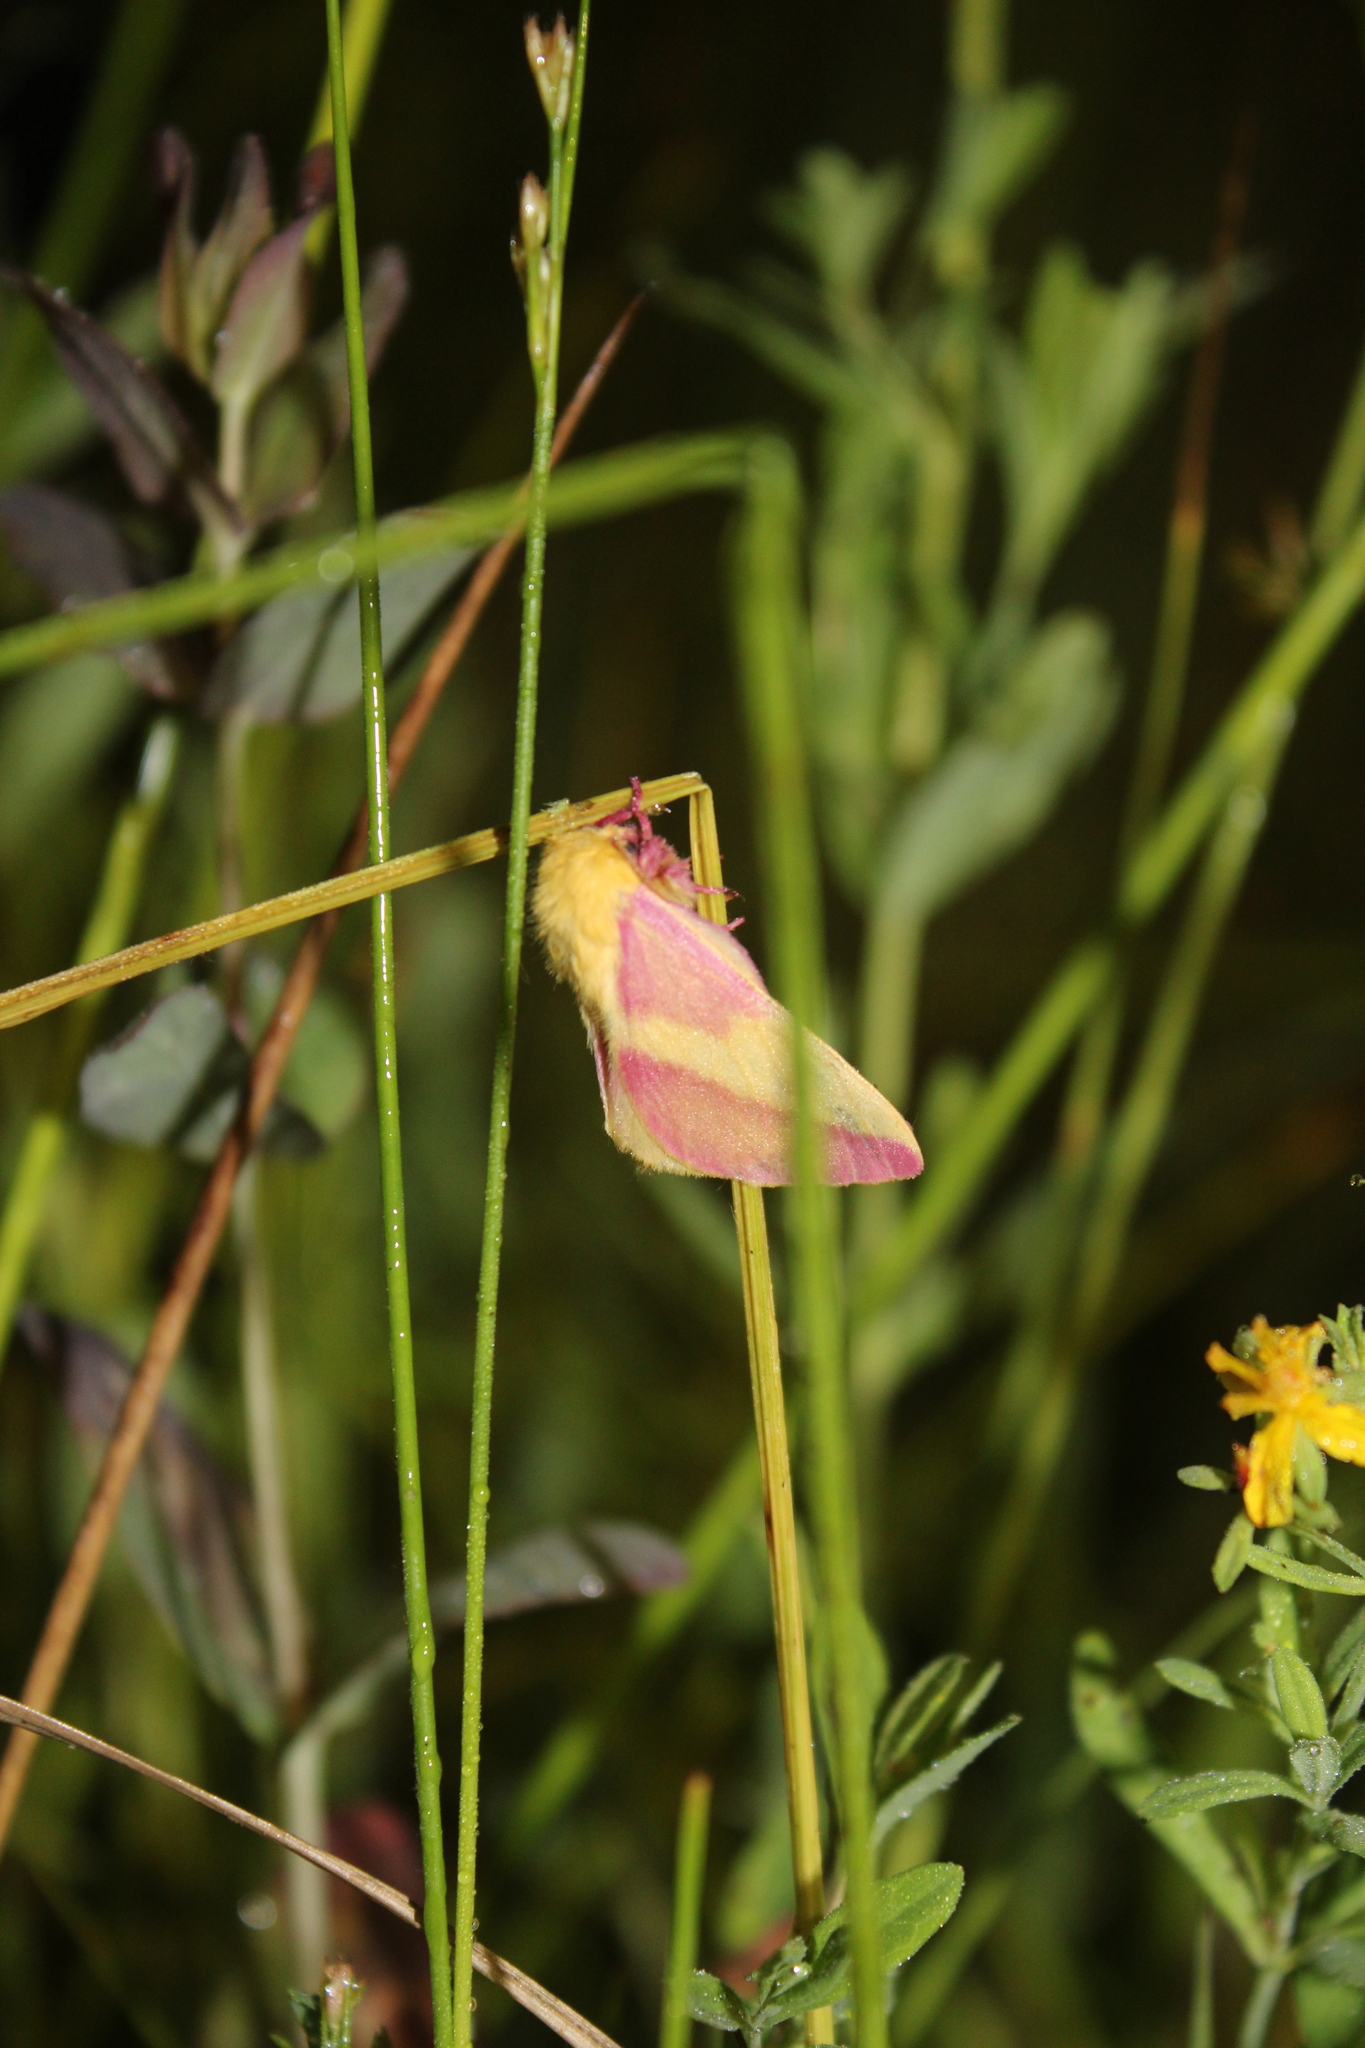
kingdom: Animalia
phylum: Arthropoda
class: Insecta
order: Lepidoptera
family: Saturniidae
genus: Dryocampa
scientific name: Dryocampa rubicunda
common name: Rosy maple moth
